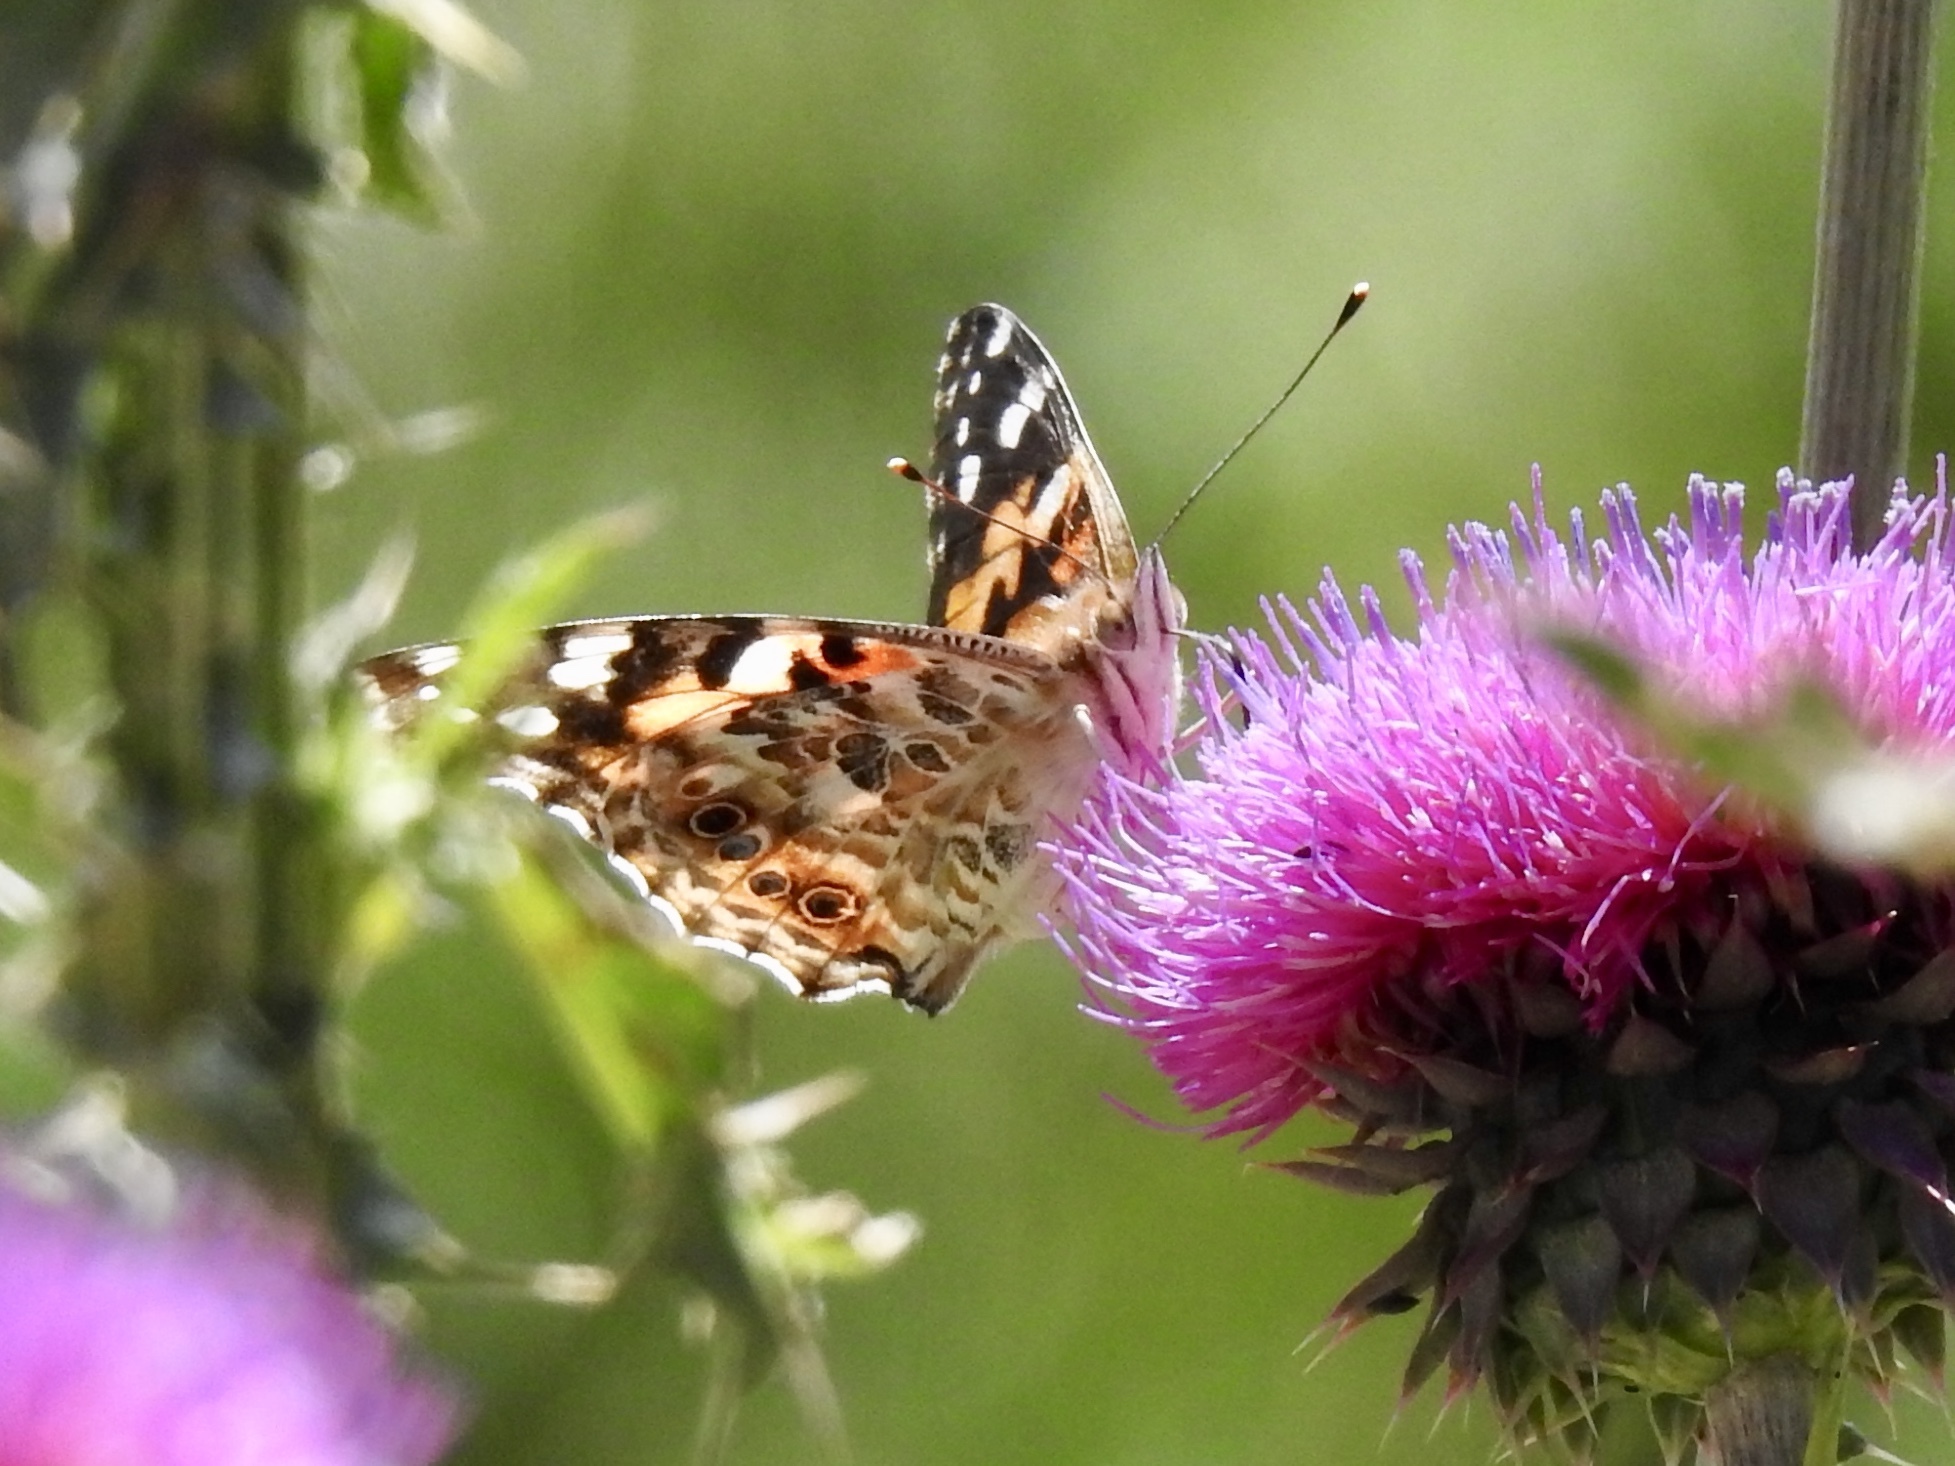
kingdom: Animalia
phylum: Arthropoda
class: Insecta
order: Lepidoptera
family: Nymphalidae
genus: Vanessa
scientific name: Vanessa cardui
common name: Painted lady
